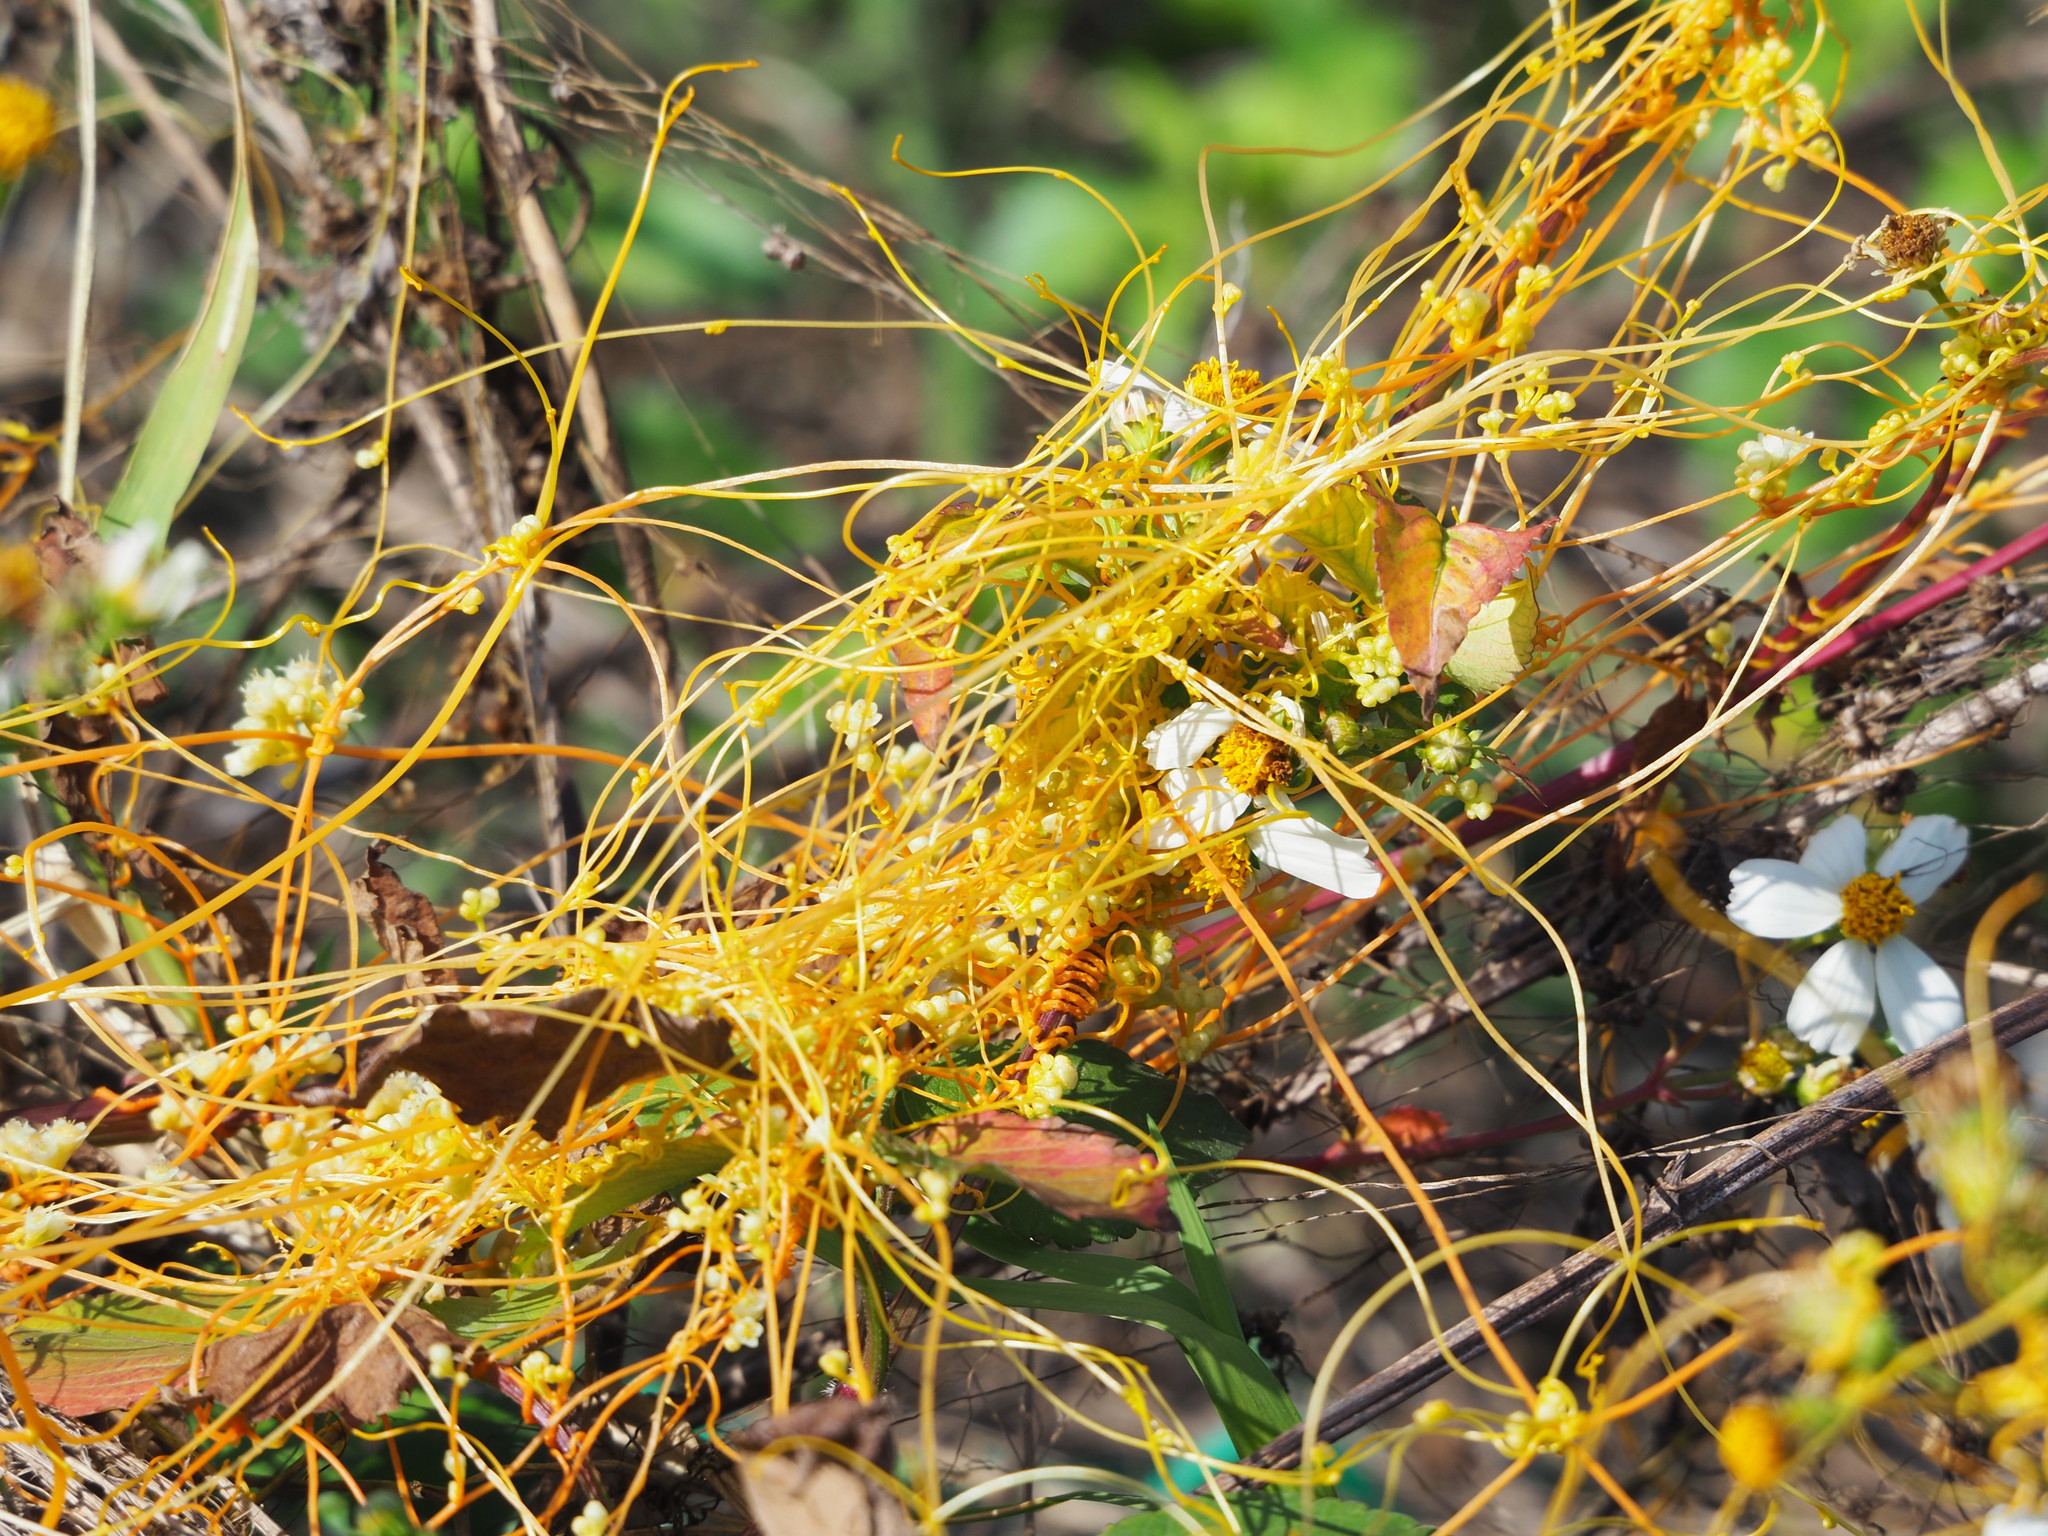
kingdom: Plantae
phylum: Tracheophyta
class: Magnoliopsida
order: Solanales
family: Convolvulaceae
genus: Cuscuta
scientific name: Cuscuta campestris
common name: Yellow dodder
